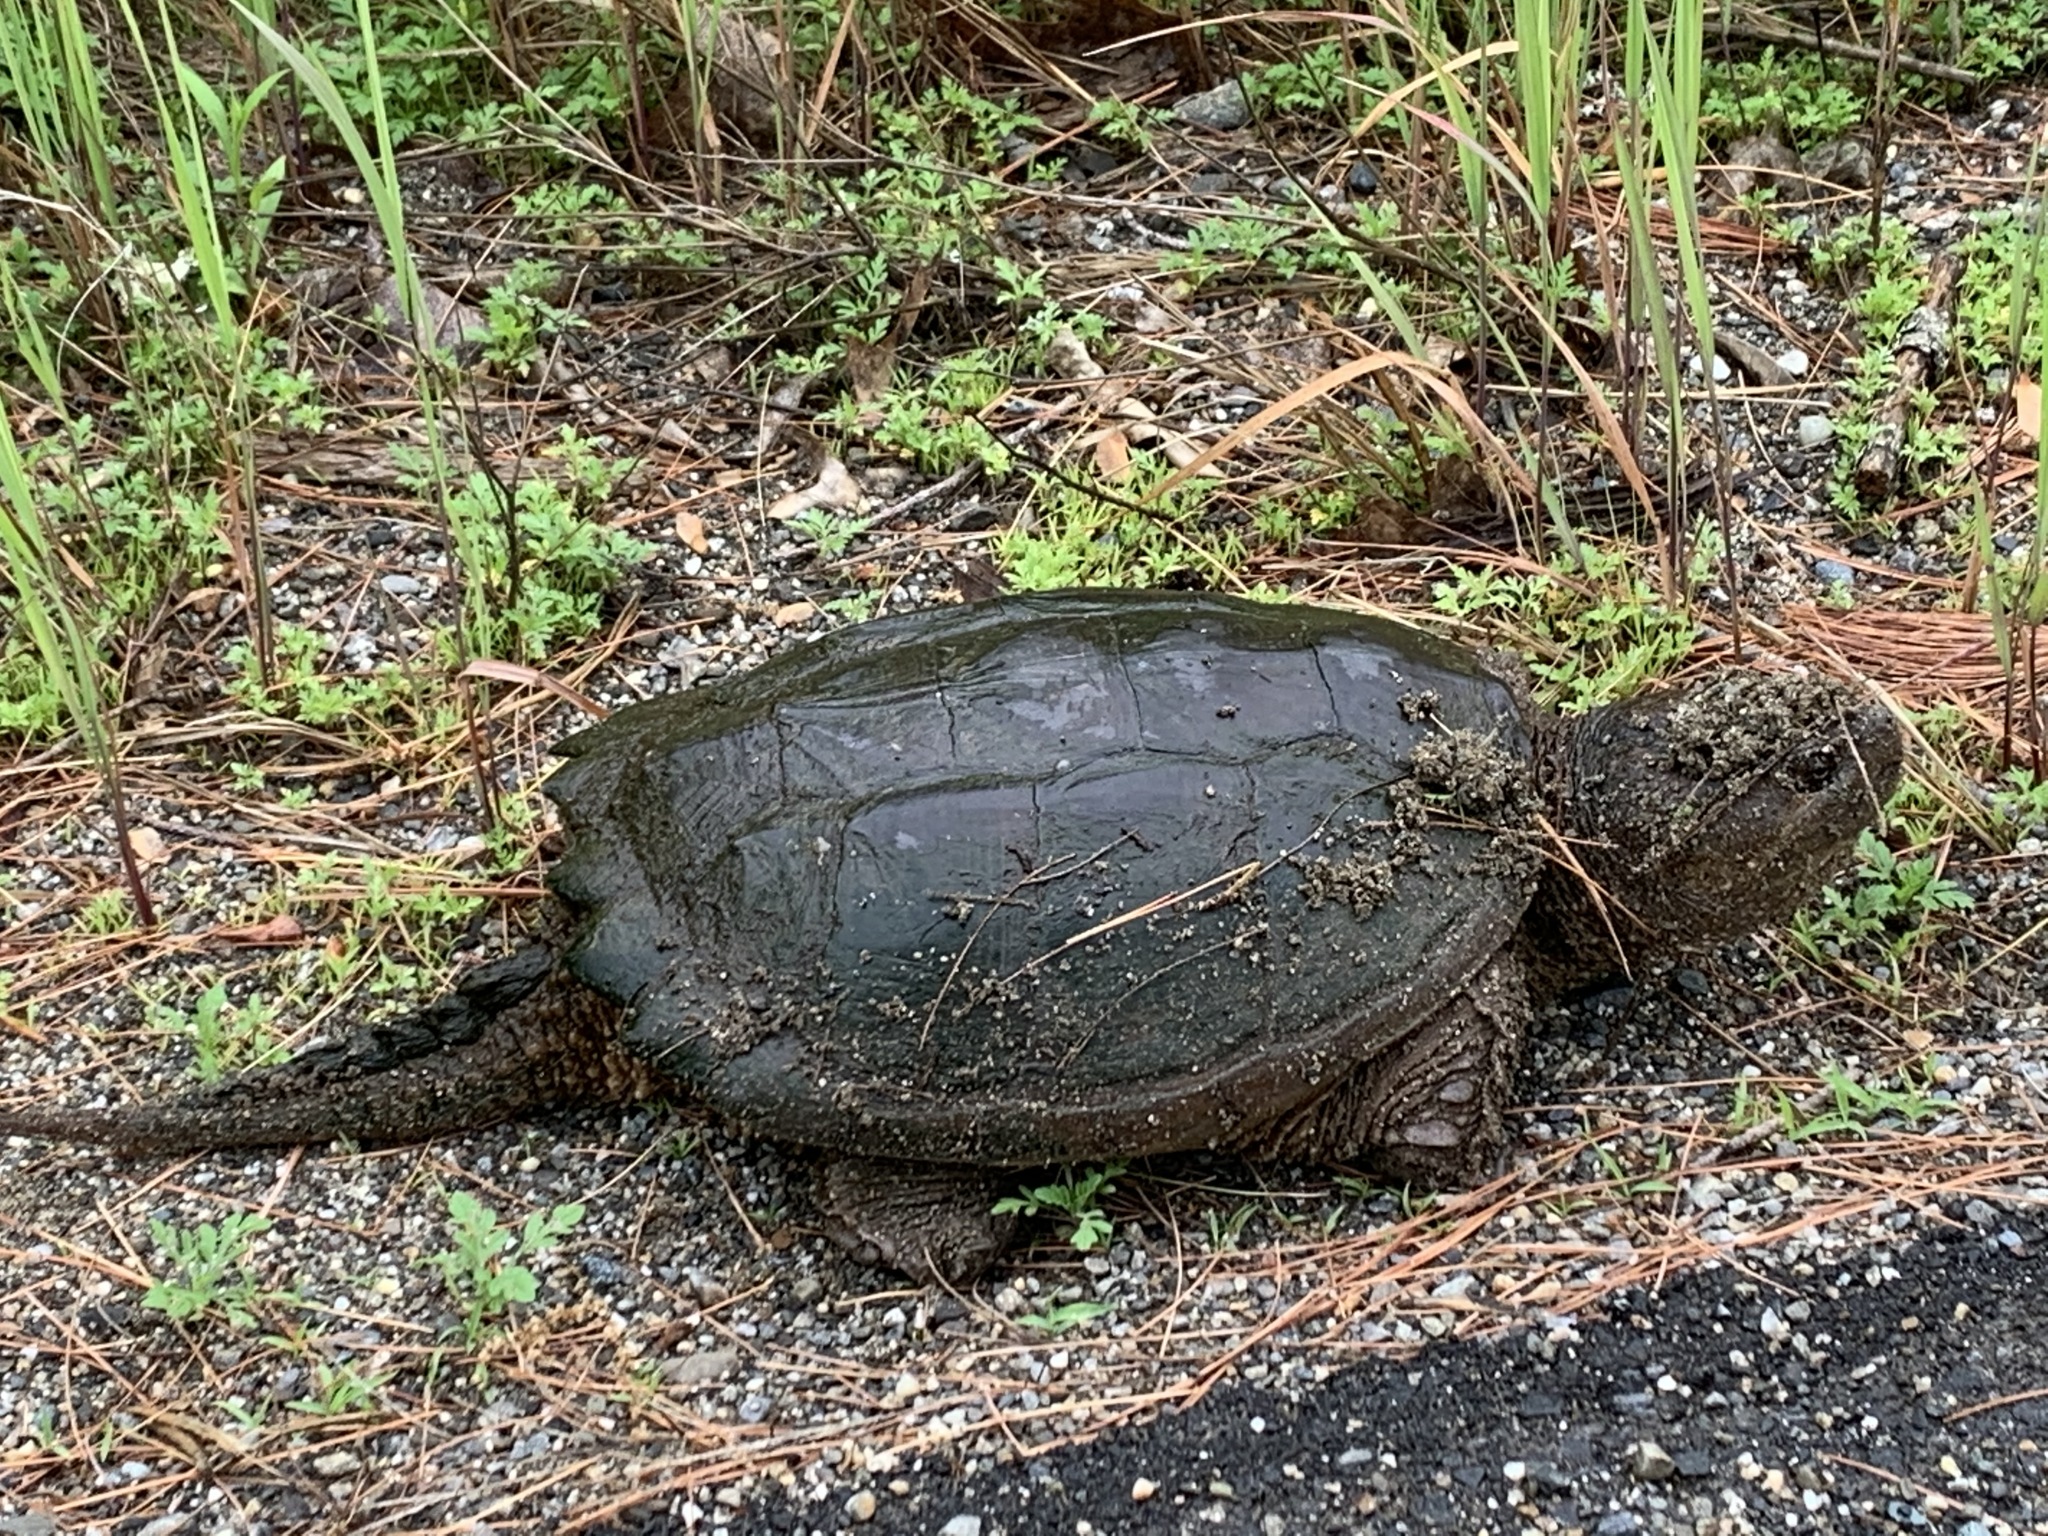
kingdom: Animalia
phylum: Chordata
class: Testudines
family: Chelydridae
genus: Chelydra
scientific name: Chelydra serpentina
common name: Common snapping turtle
